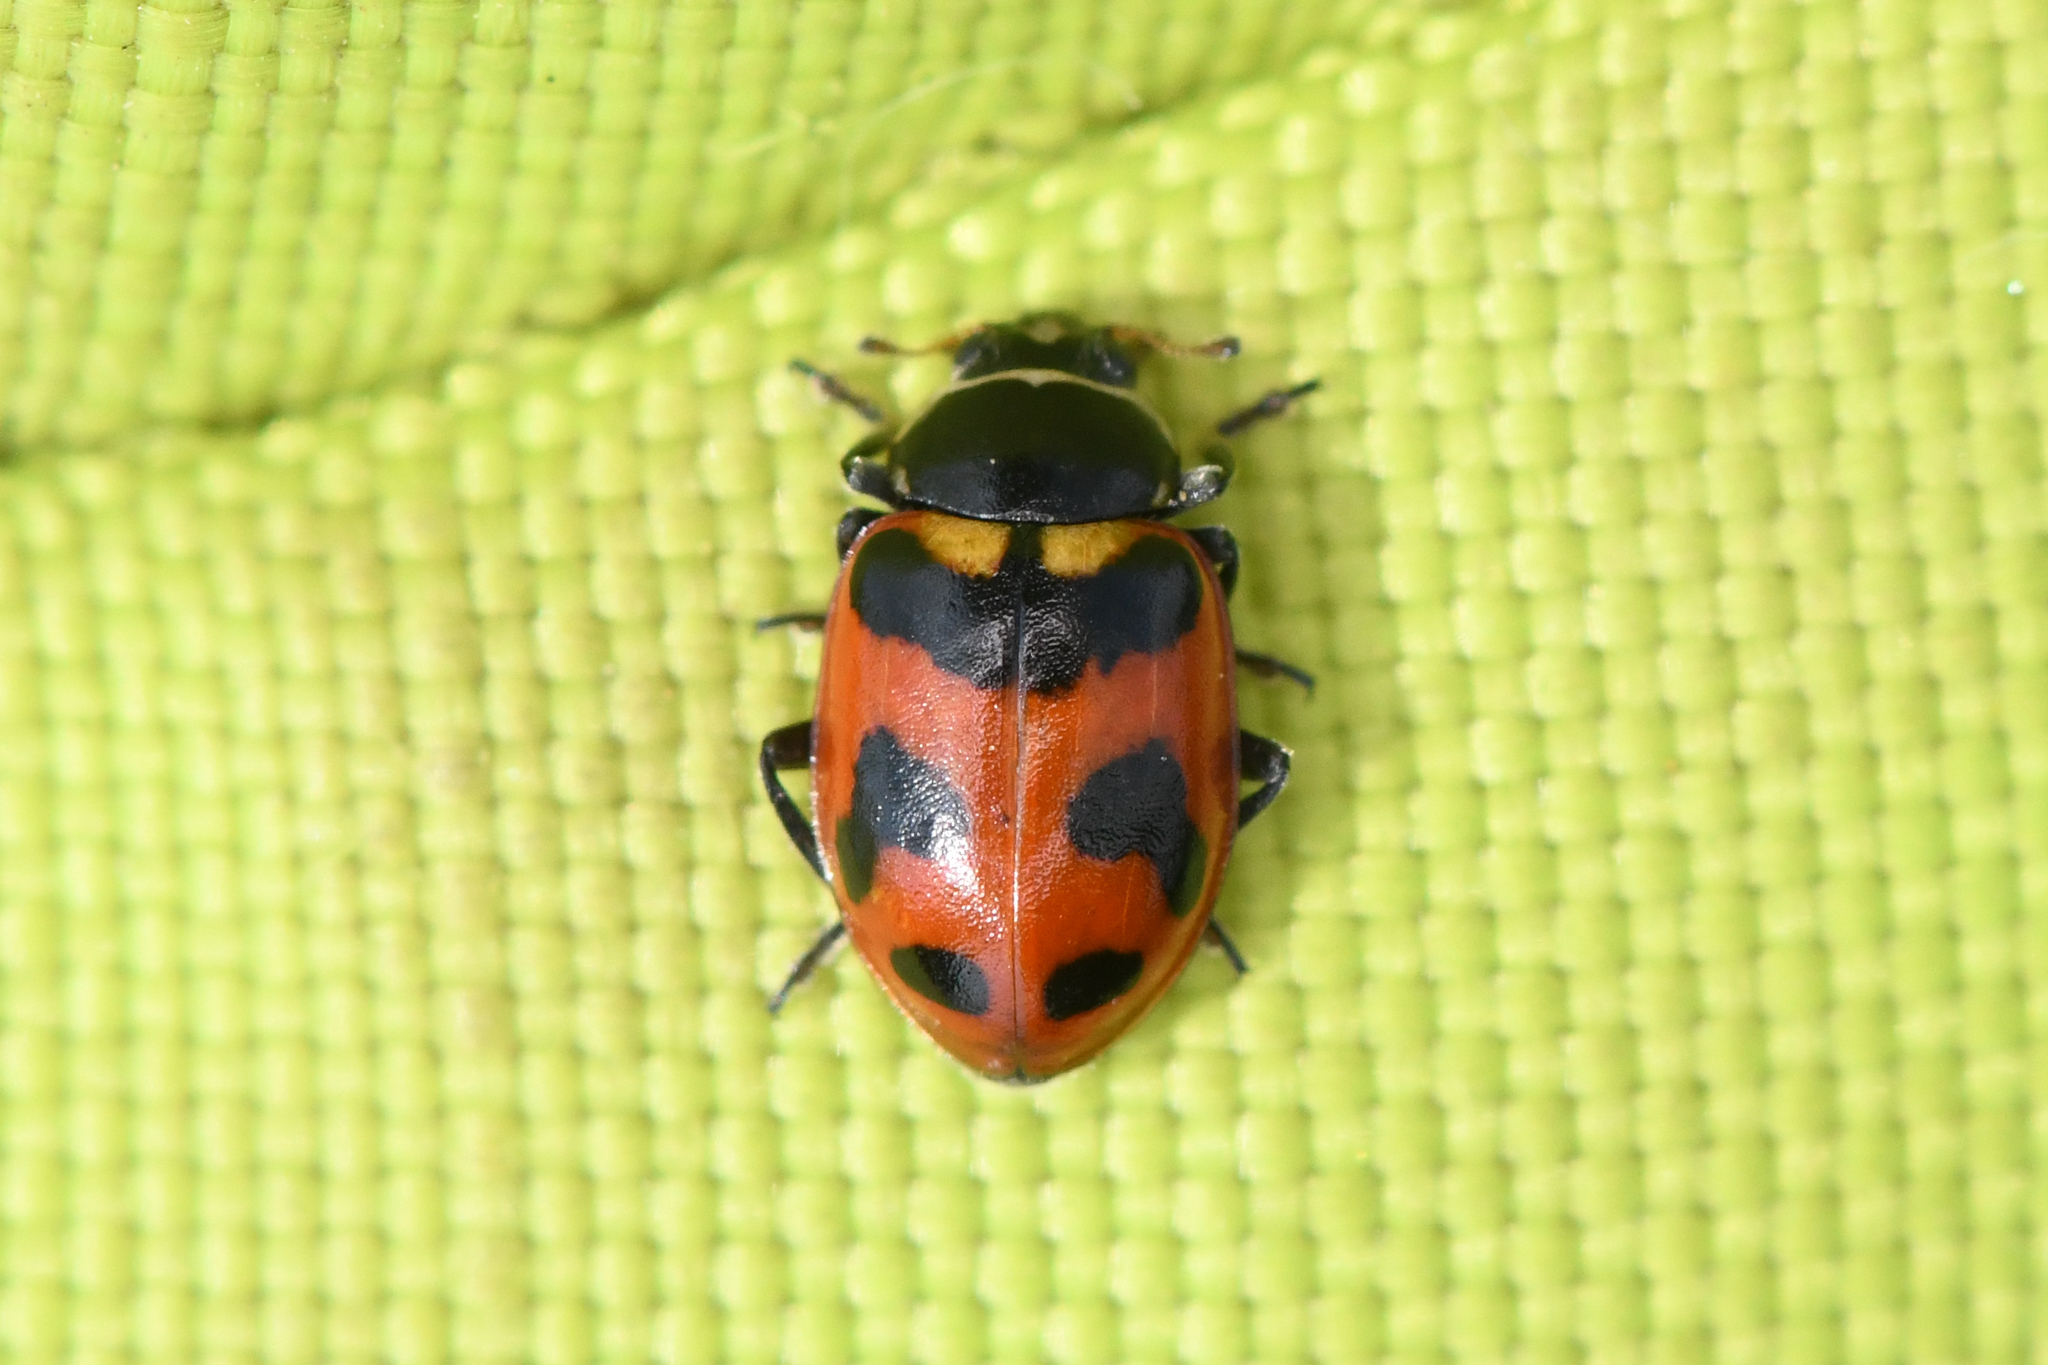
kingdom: Animalia
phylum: Arthropoda
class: Insecta
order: Coleoptera
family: Coccinellidae
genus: Hippodamia
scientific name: Hippodamia oregonensis
